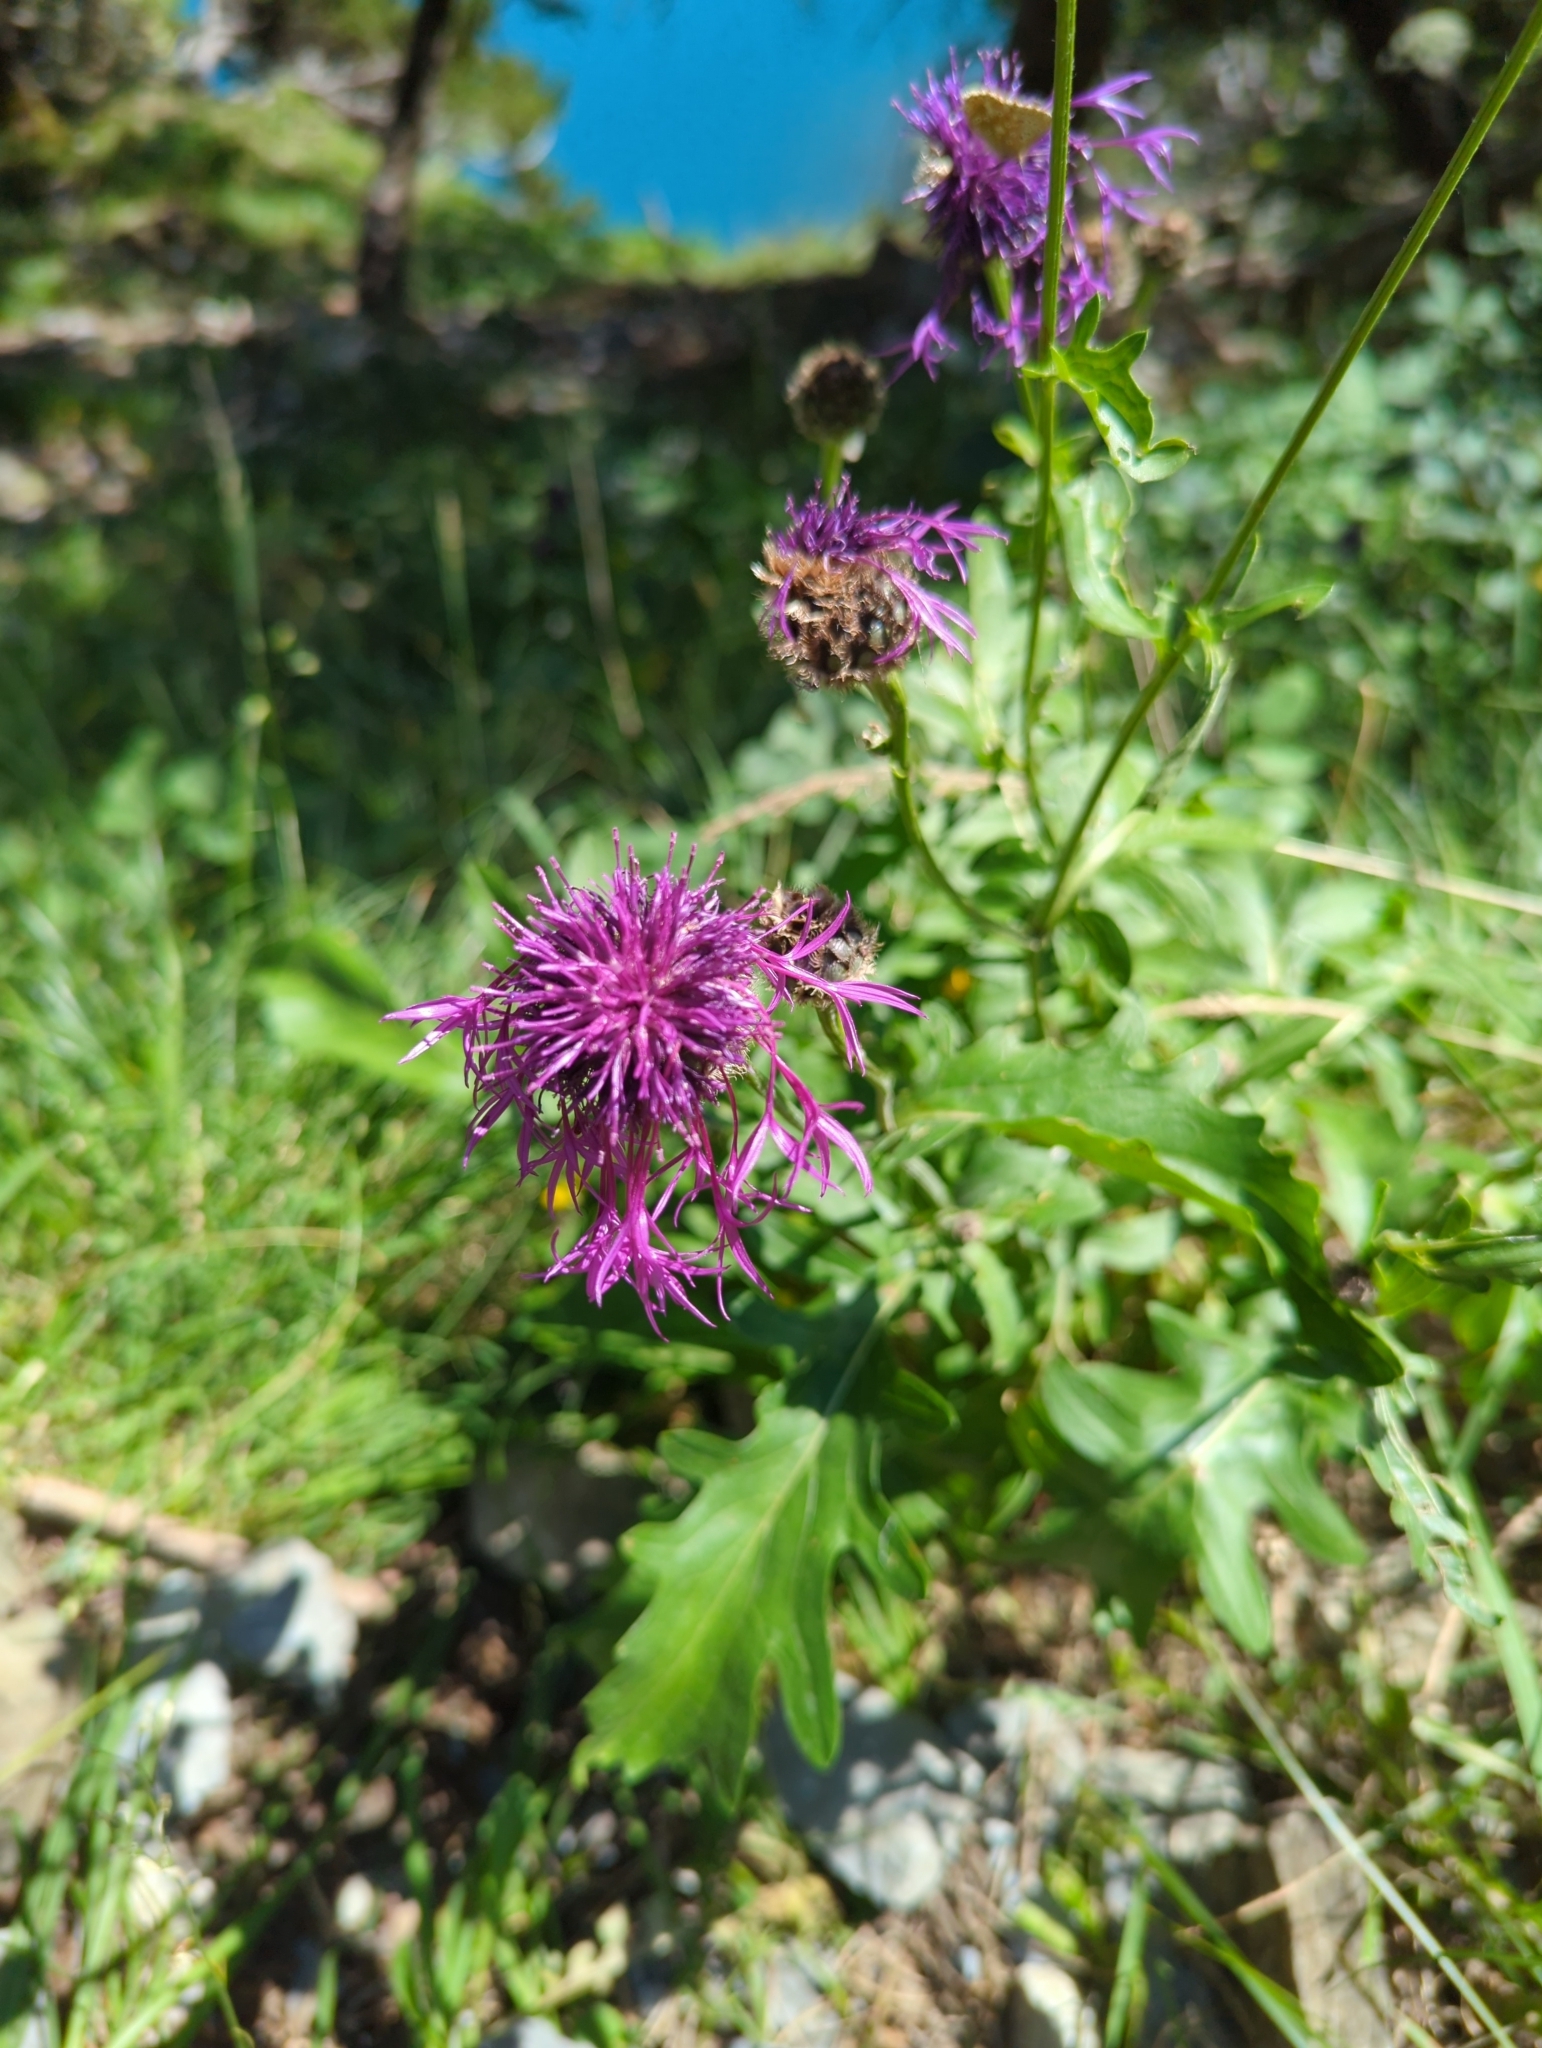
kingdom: Plantae
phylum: Tracheophyta
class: Magnoliopsida
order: Asterales
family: Asteraceae
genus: Centaurea
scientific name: Centaurea scabiosa
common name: Greater knapweed
